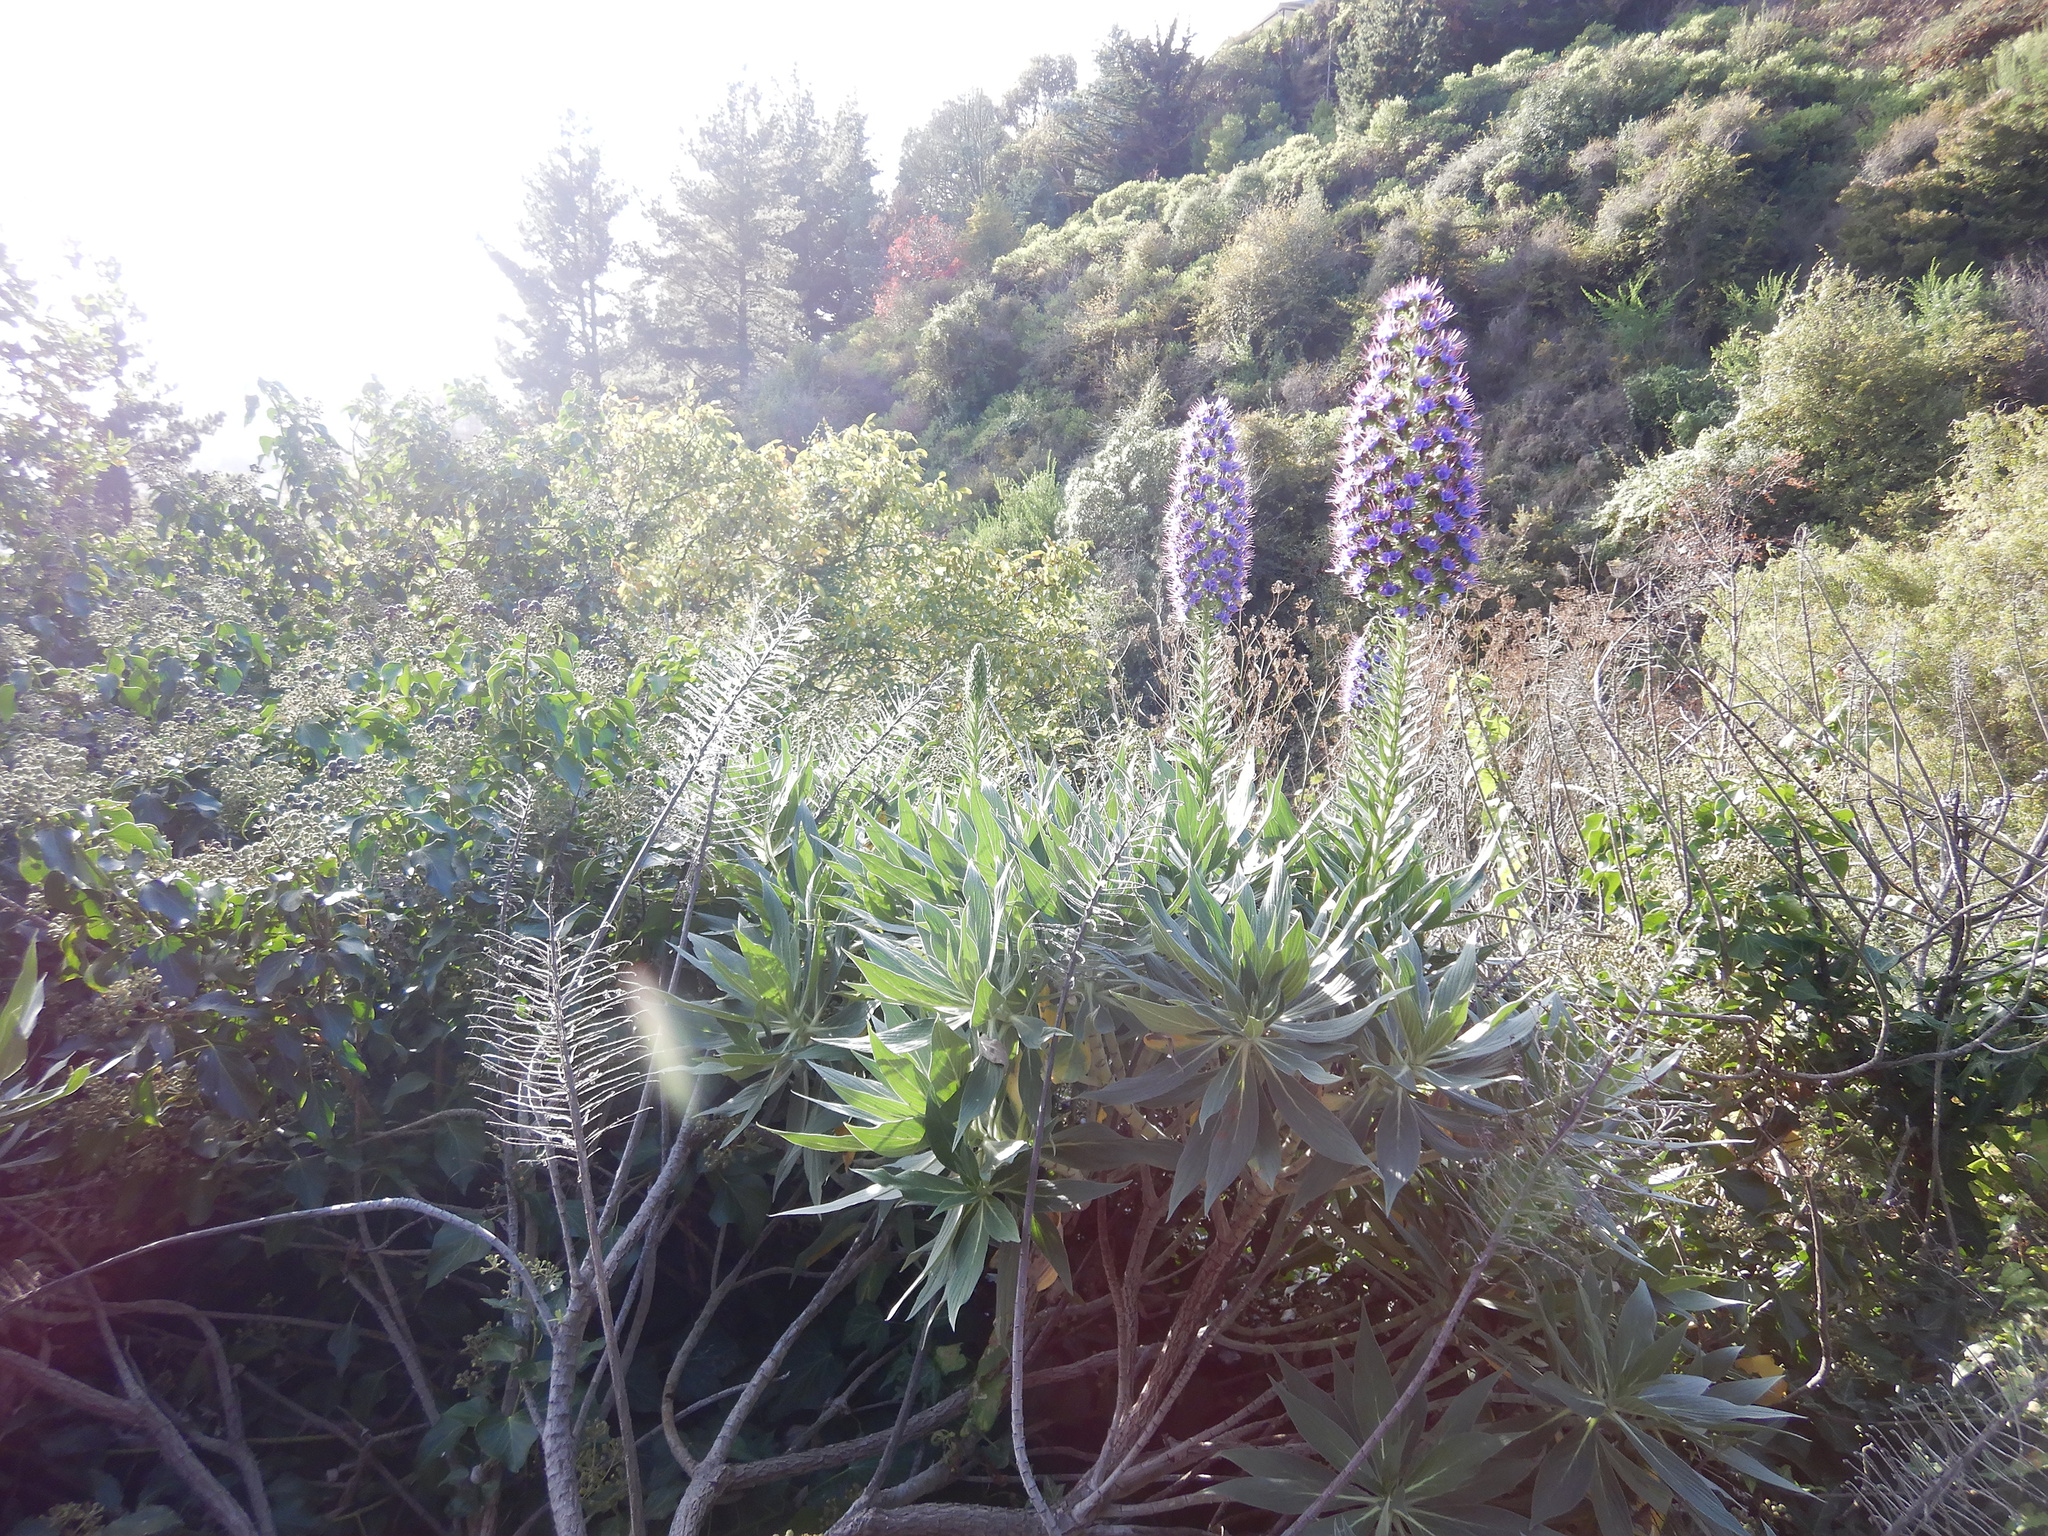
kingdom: Plantae
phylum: Tracheophyta
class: Magnoliopsida
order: Boraginales
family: Boraginaceae
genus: Echium
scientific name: Echium candicans
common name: Pride of madeira
